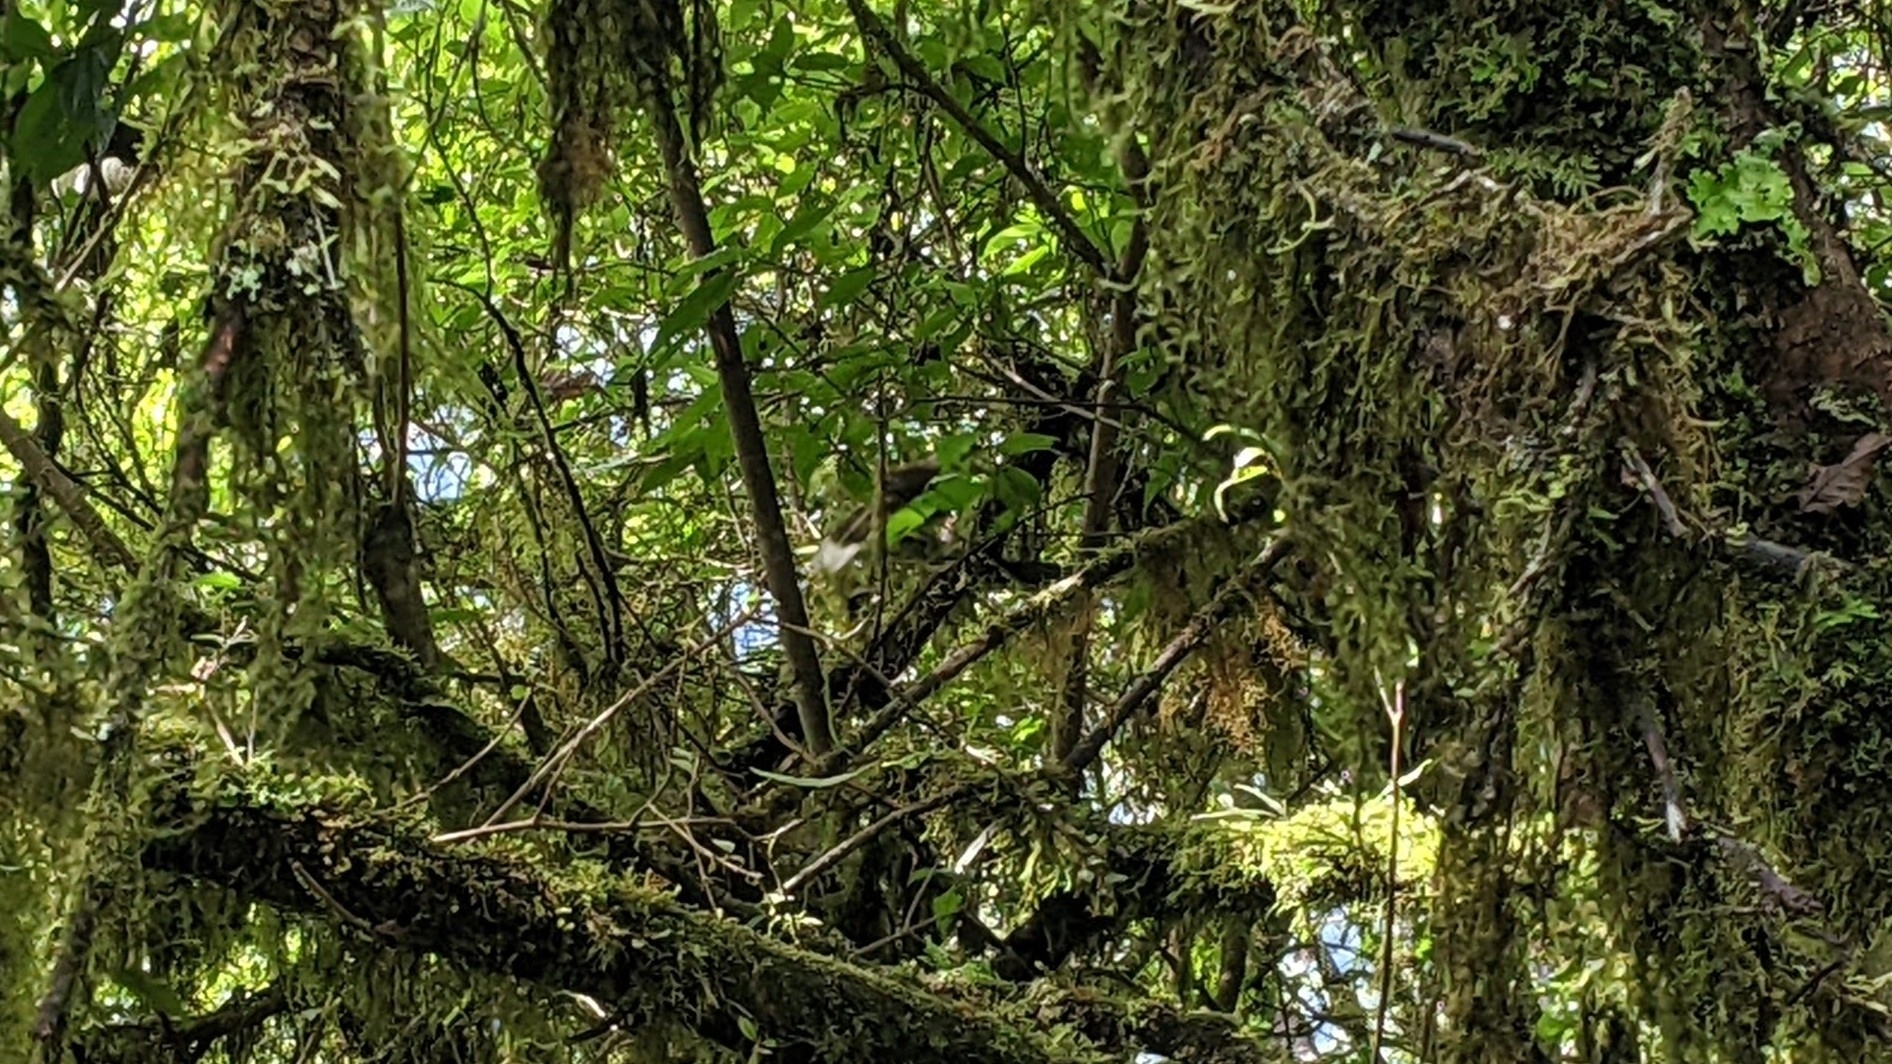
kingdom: Animalia
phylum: Chordata
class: Aves
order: Passeriformes
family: Leiothrichidae
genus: Garrulax
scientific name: Garrulax ruficeps
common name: Rufous-crowned laughingthrush
